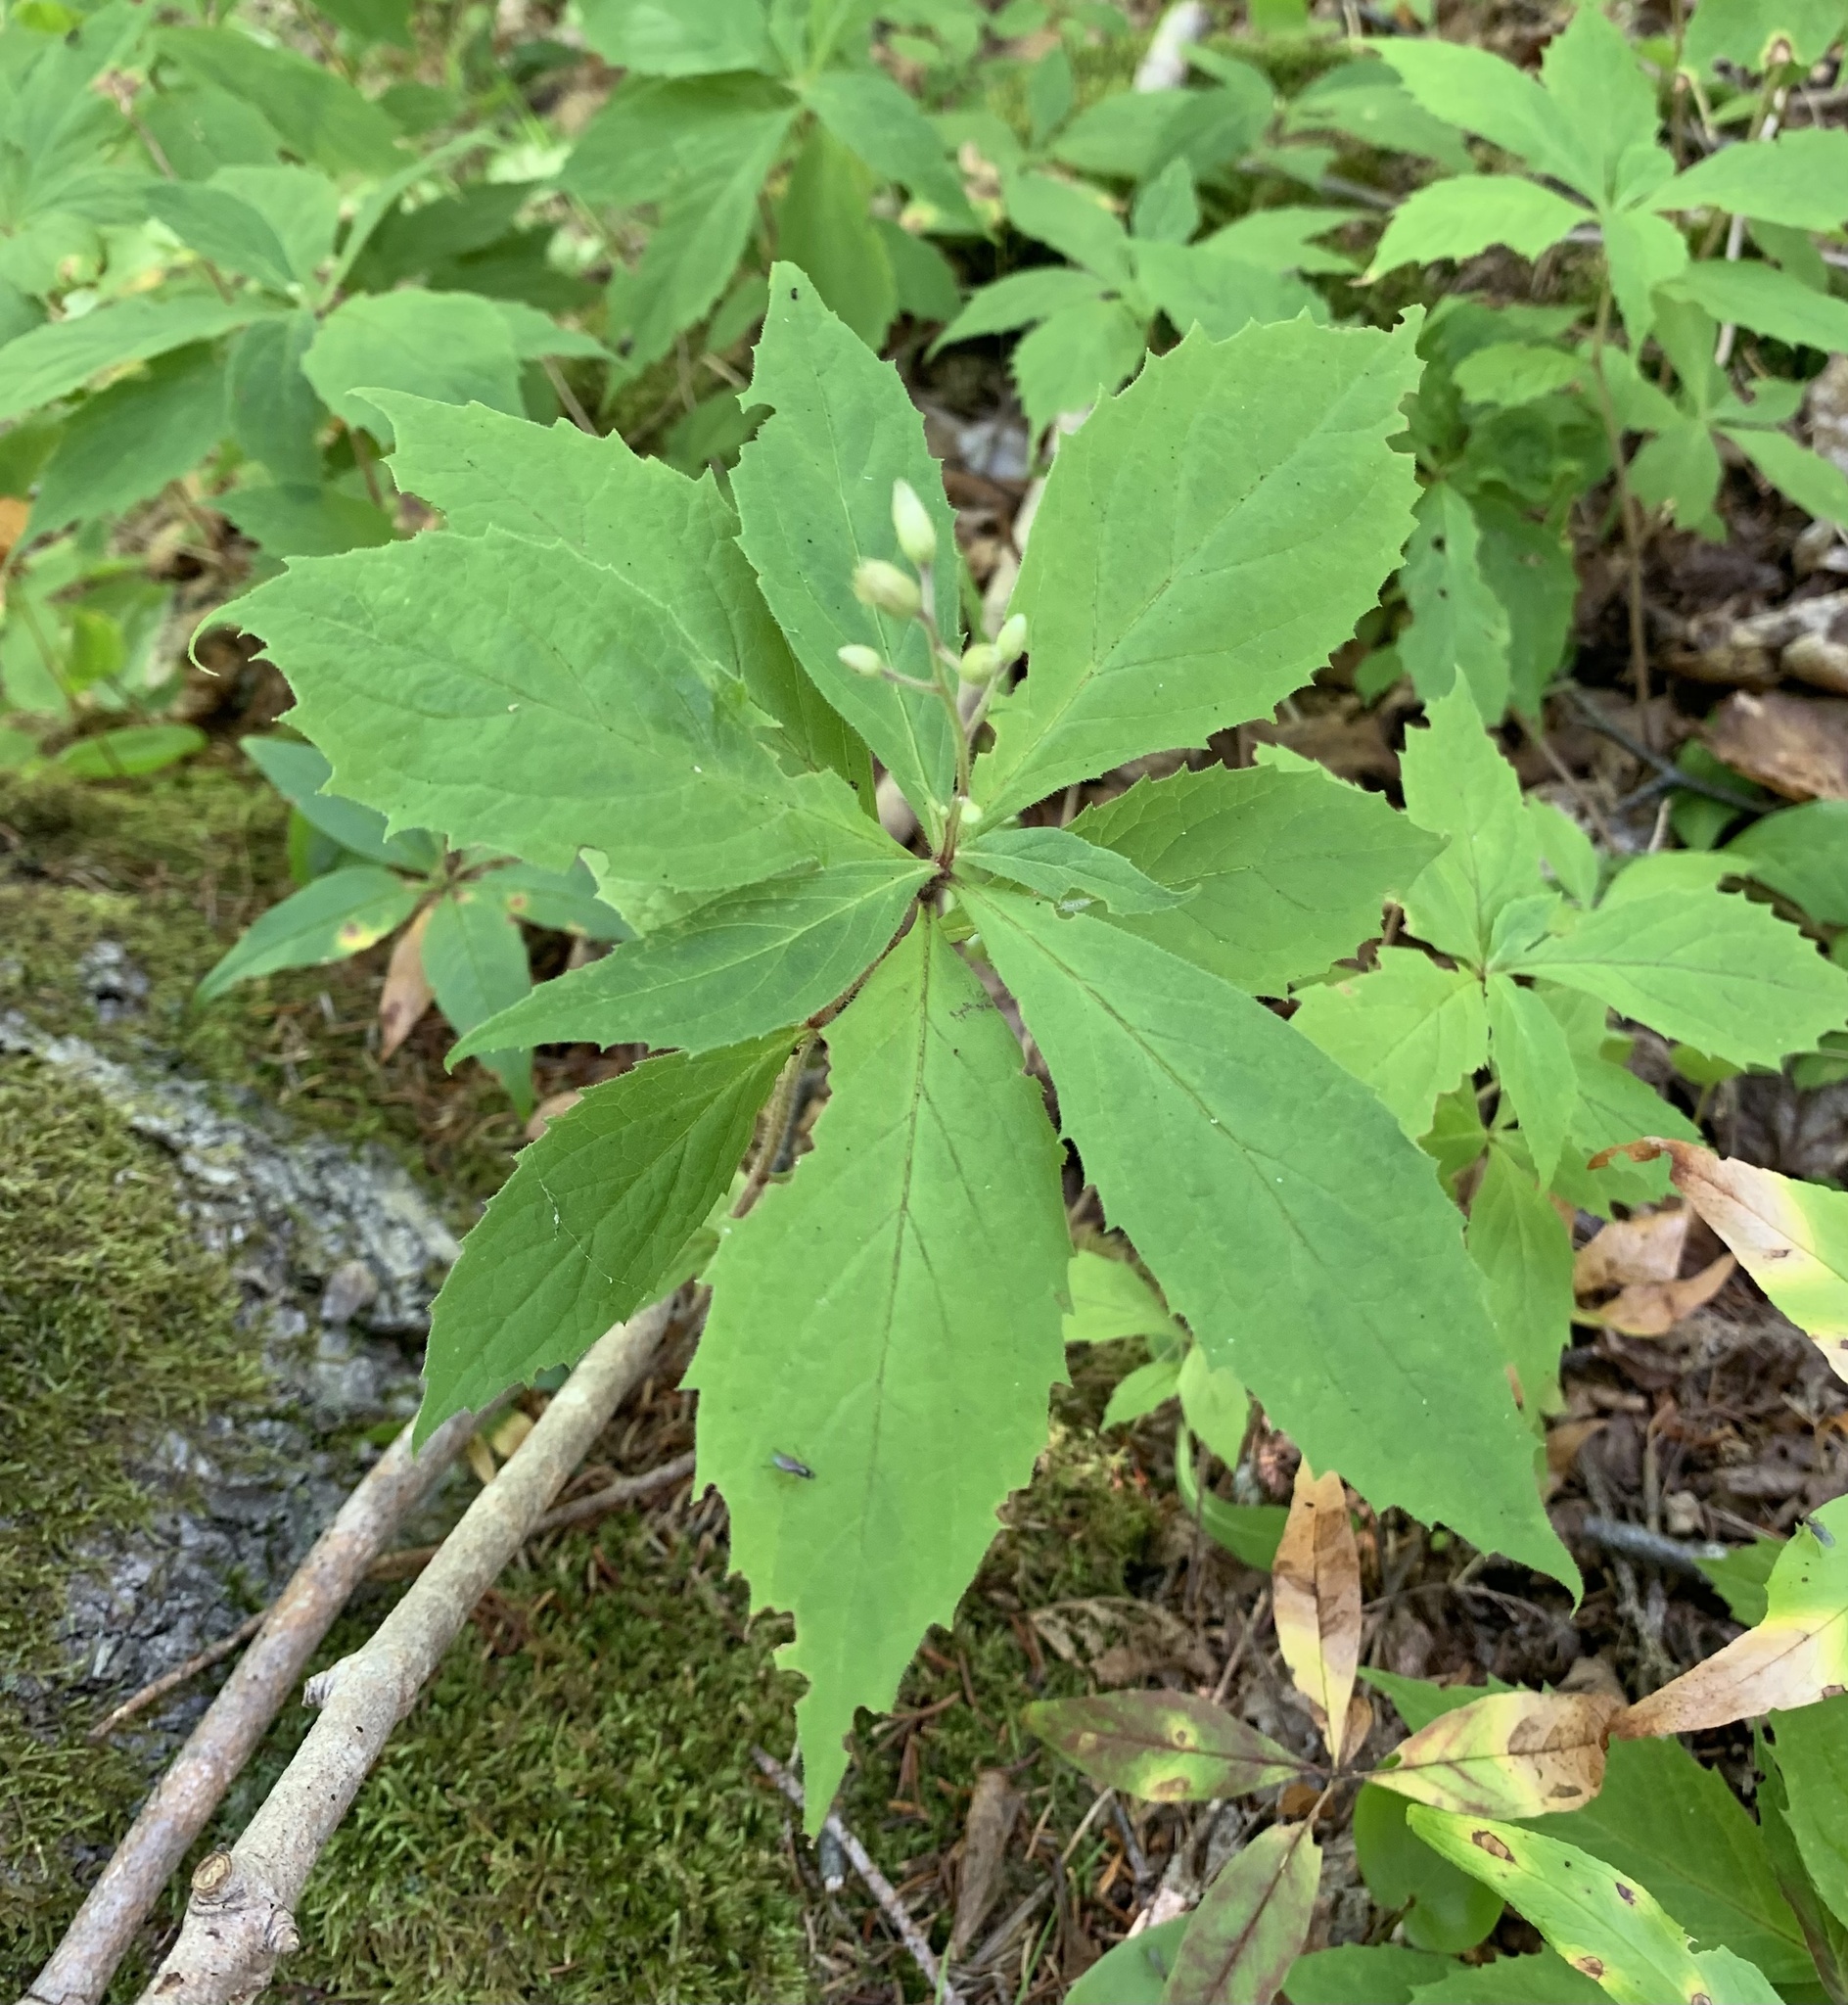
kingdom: Plantae
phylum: Tracheophyta
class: Magnoliopsida
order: Asterales
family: Asteraceae
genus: Oclemena
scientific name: Oclemena acuminata
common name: Mountain aster
